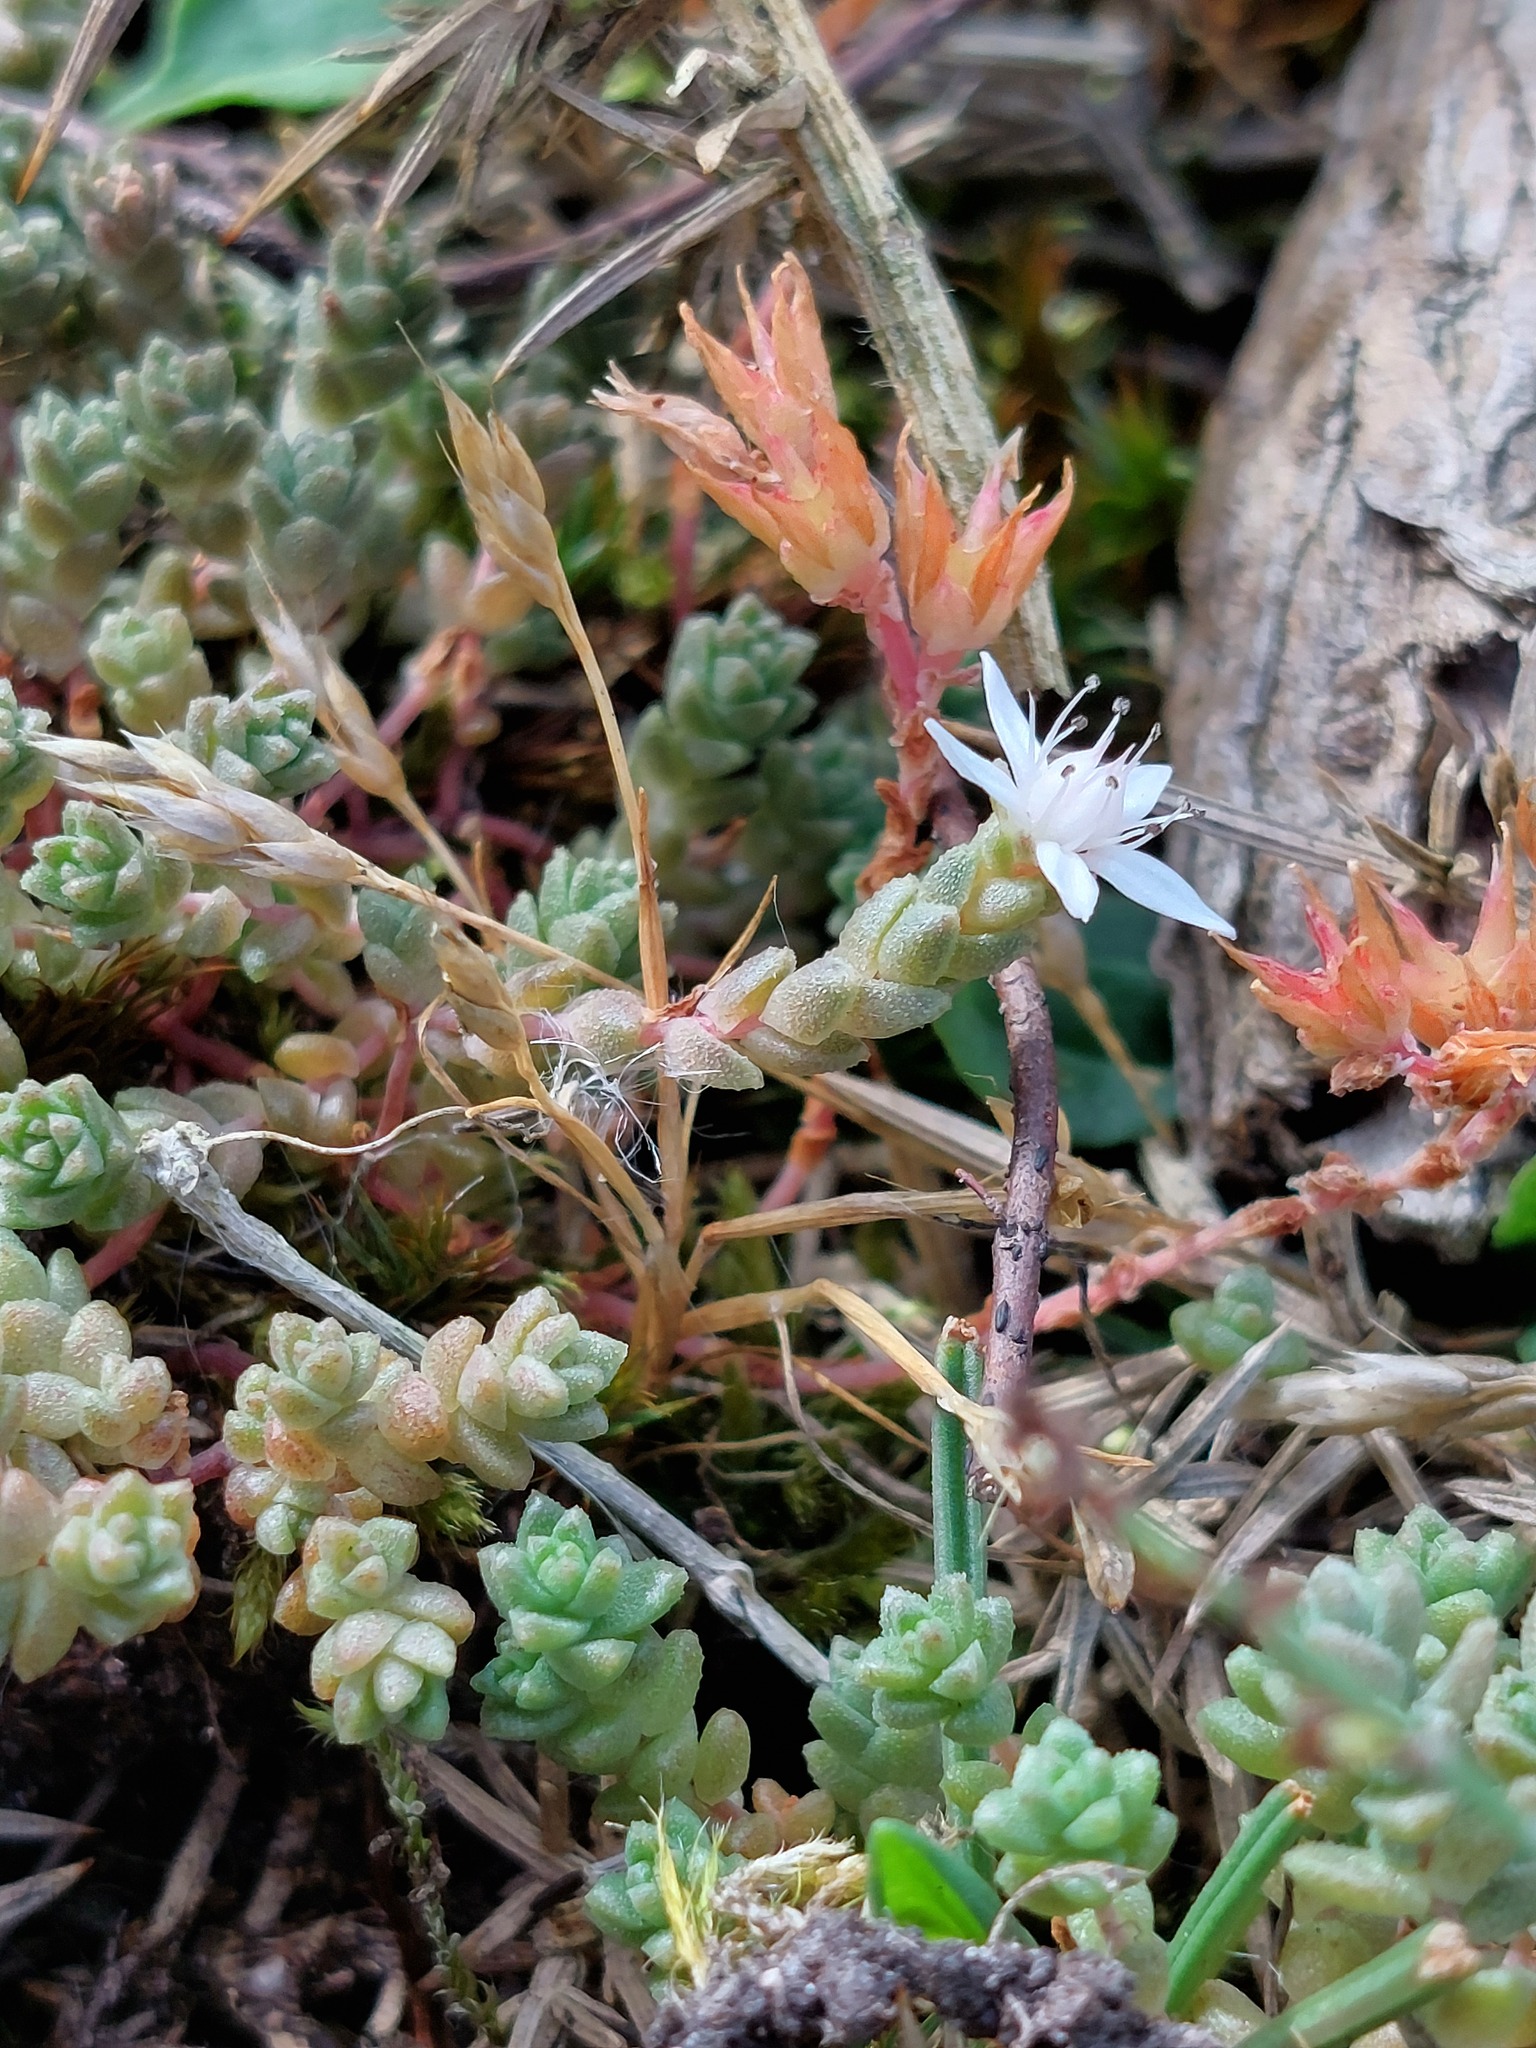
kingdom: Plantae
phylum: Tracheophyta
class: Magnoliopsida
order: Saxifragales
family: Crassulaceae
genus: Sedum
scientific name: Sedum anglicum
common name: English stonecrop
